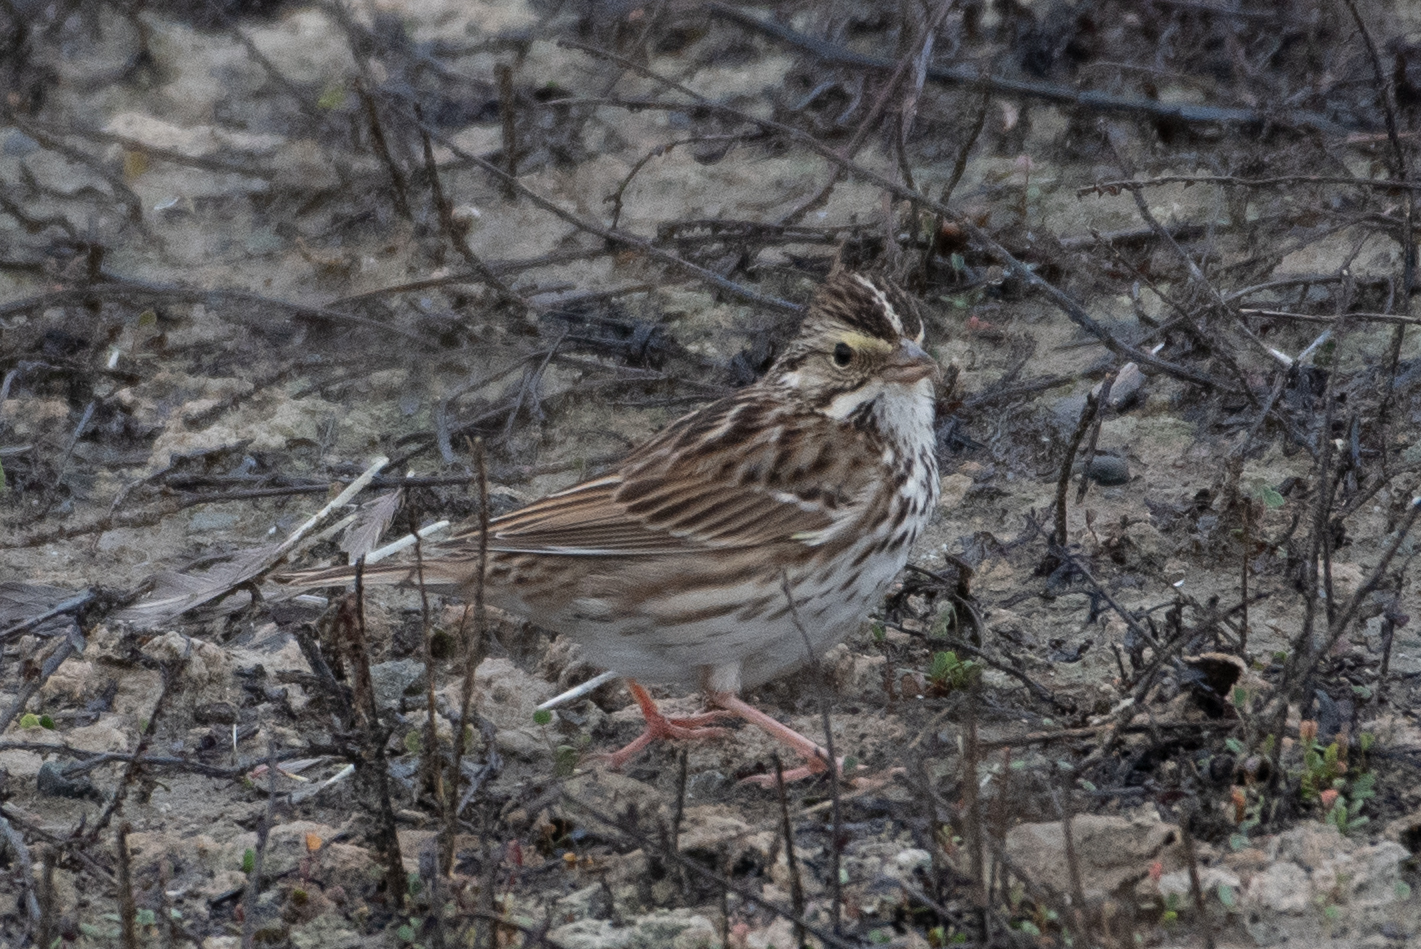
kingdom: Animalia
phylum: Chordata
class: Aves
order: Passeriformes
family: Passerellidae
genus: Passerculus
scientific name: Passerculus sandwichensis
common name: Savannah sparrow
